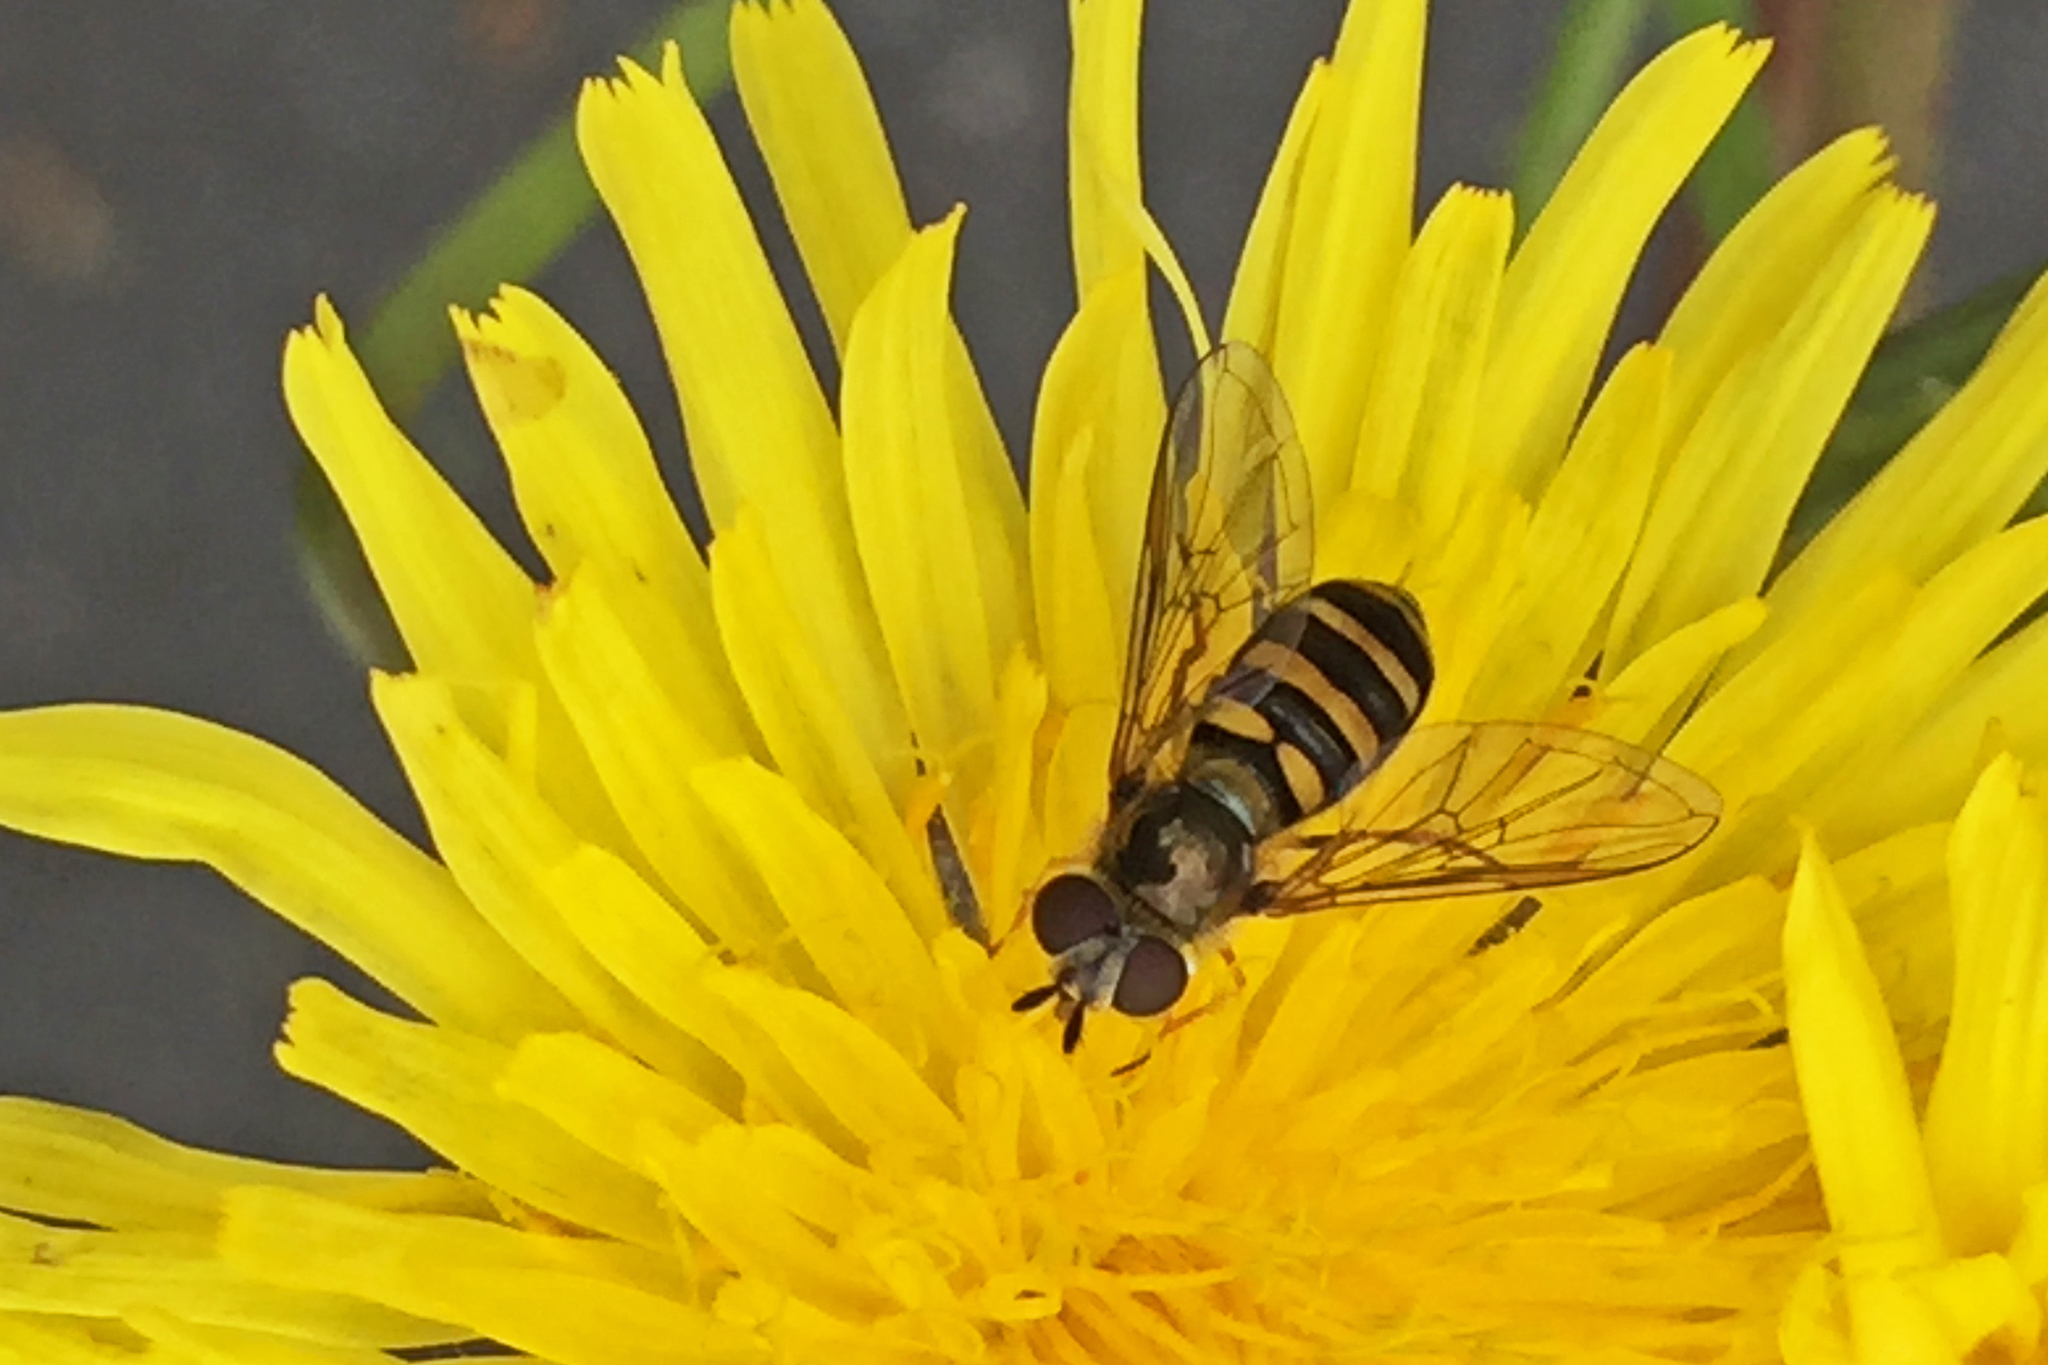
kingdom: Animalia
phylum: Arthropoda
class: Insecta
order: Diptera
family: Syrphidae
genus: Eupeodes
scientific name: Eupeodes
